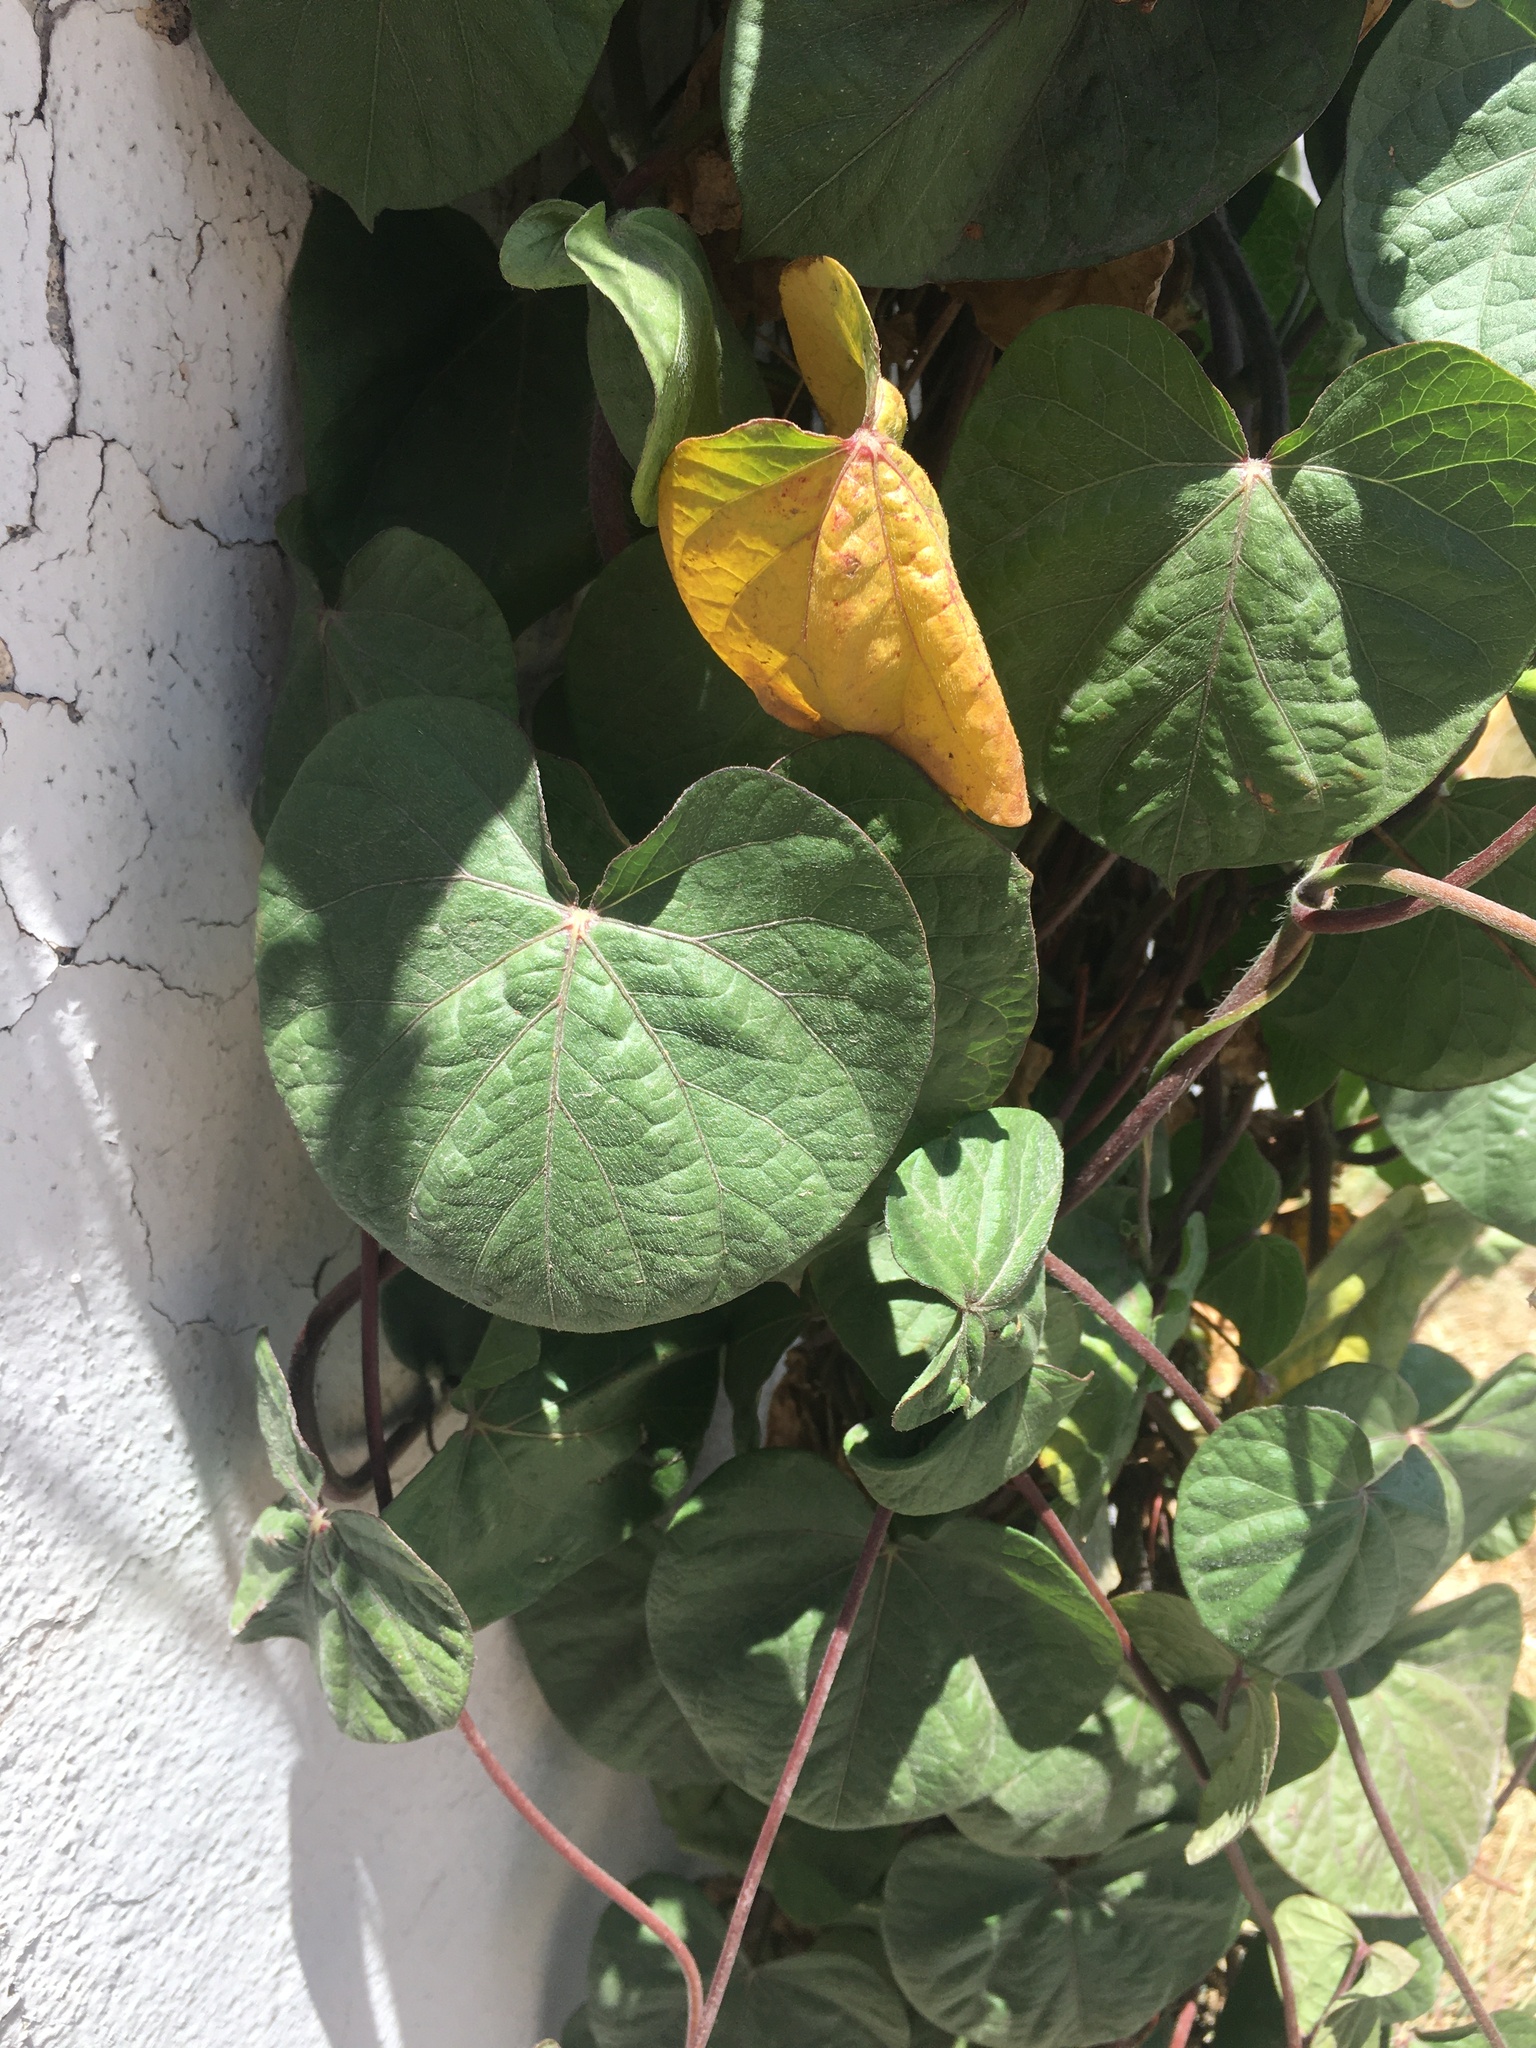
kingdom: Plantae
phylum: Tracheophyta
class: Magnoliopsida
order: Solanales
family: Convolvulaceae
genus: Ipomoea
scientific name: Ipomoea purpurea
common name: Common morning-glory
